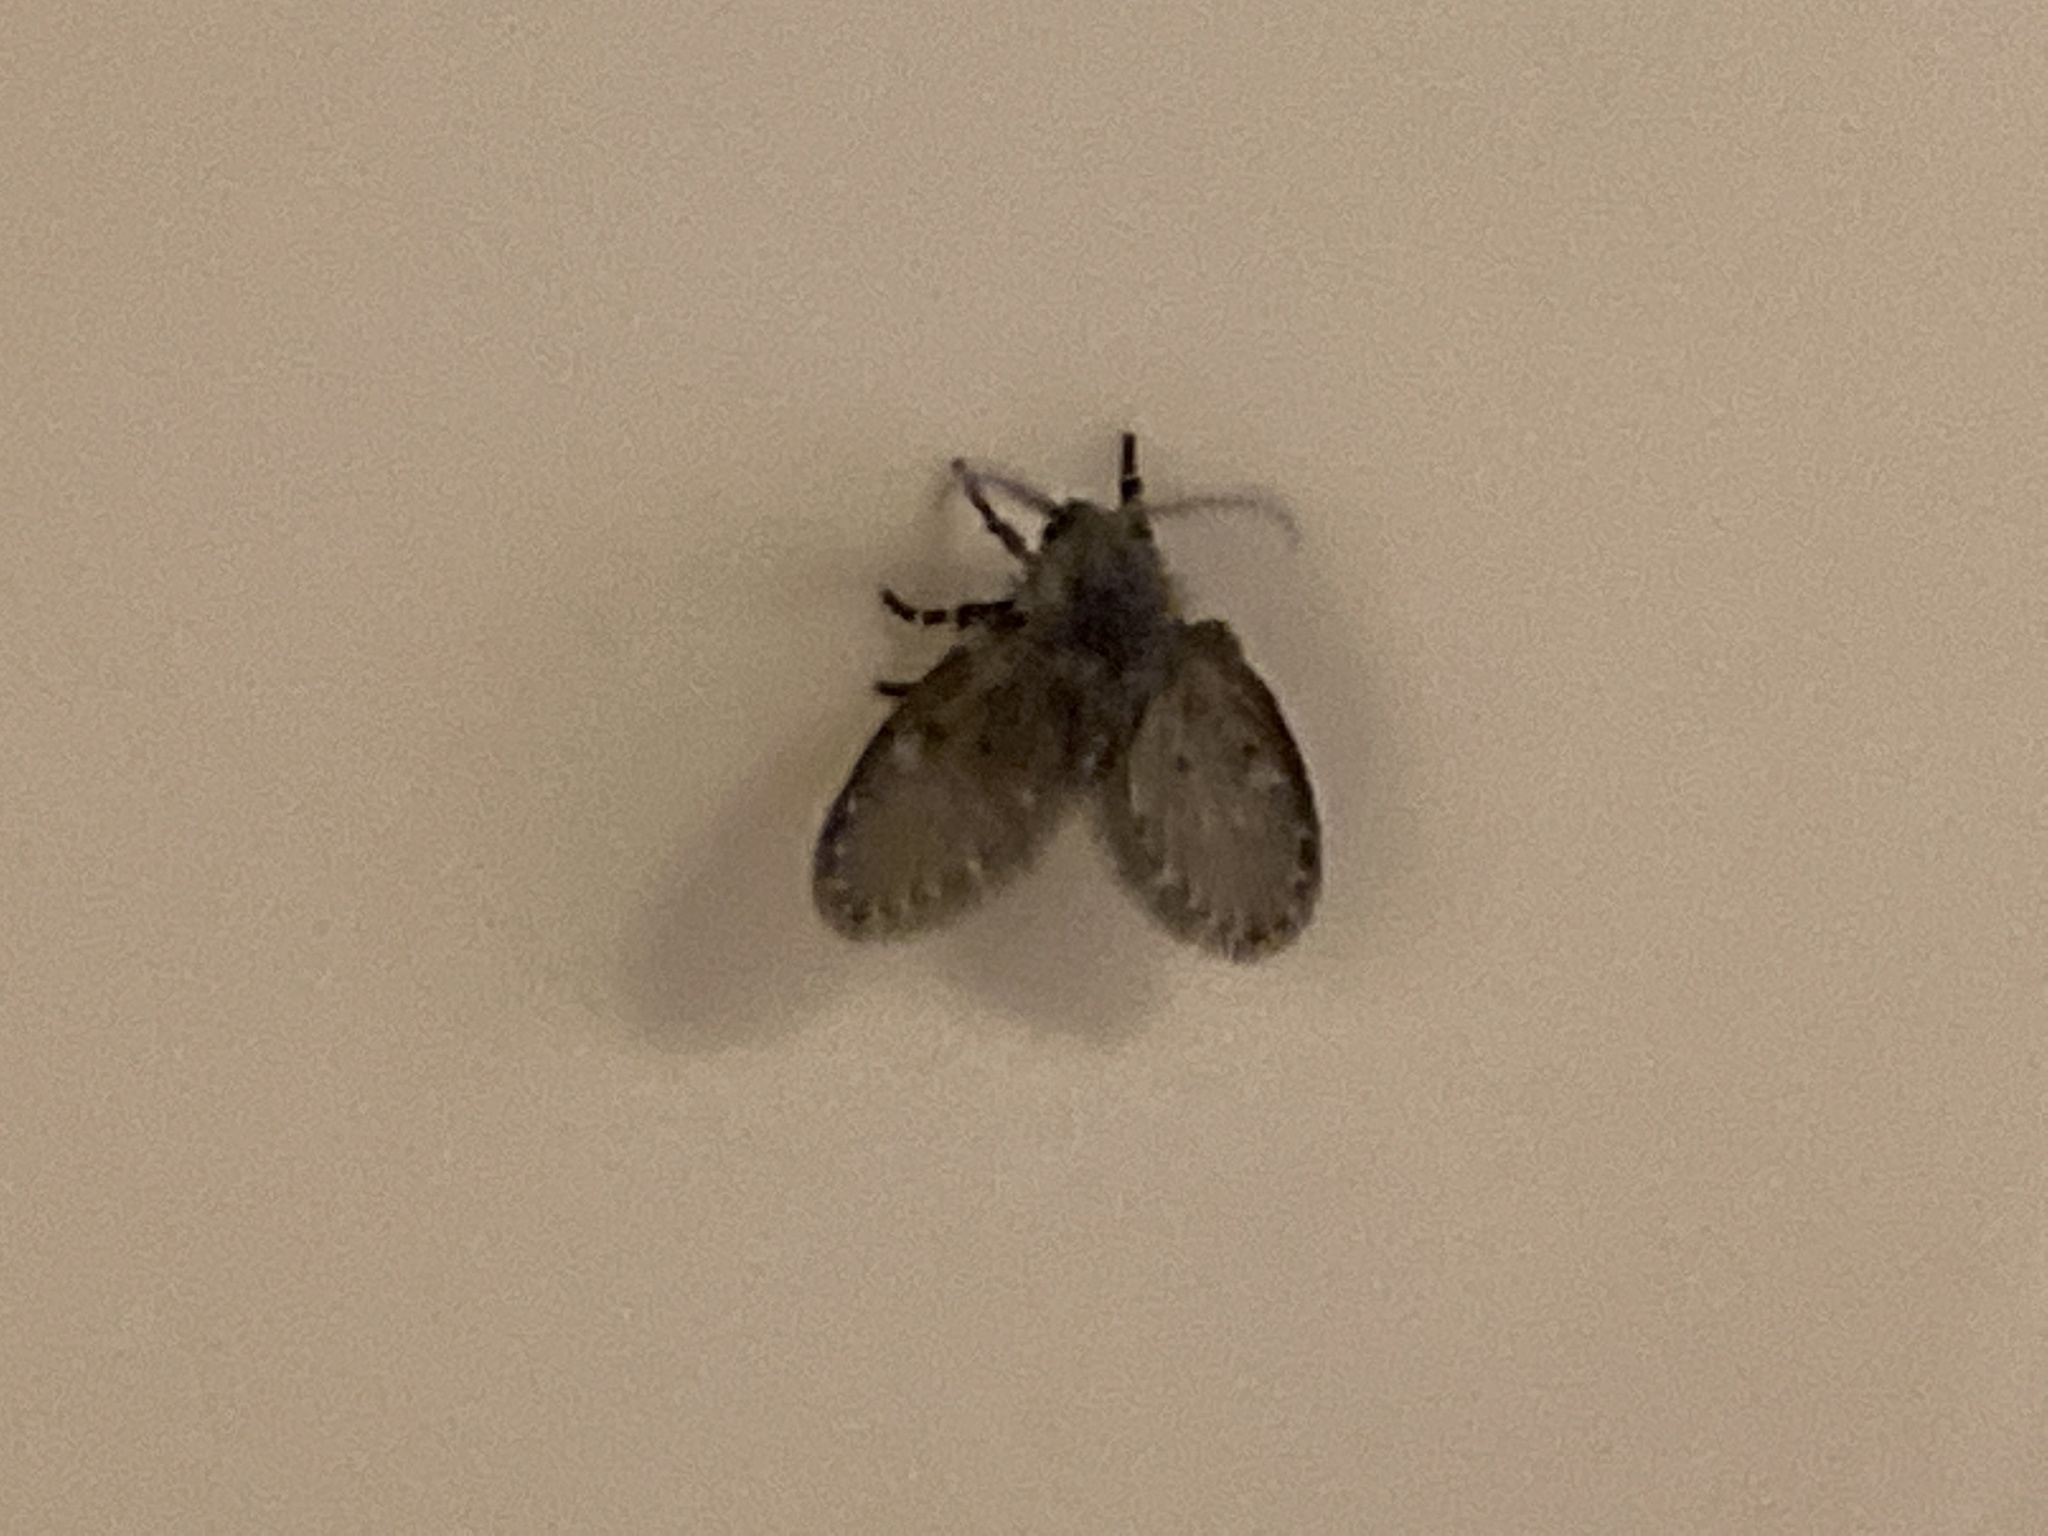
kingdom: Animalia
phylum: Arthropoda
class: Insecta
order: Diptera
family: Psychodidae
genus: Clogmia
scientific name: Clogmia albipunctatus
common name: White-spotted moth fly
